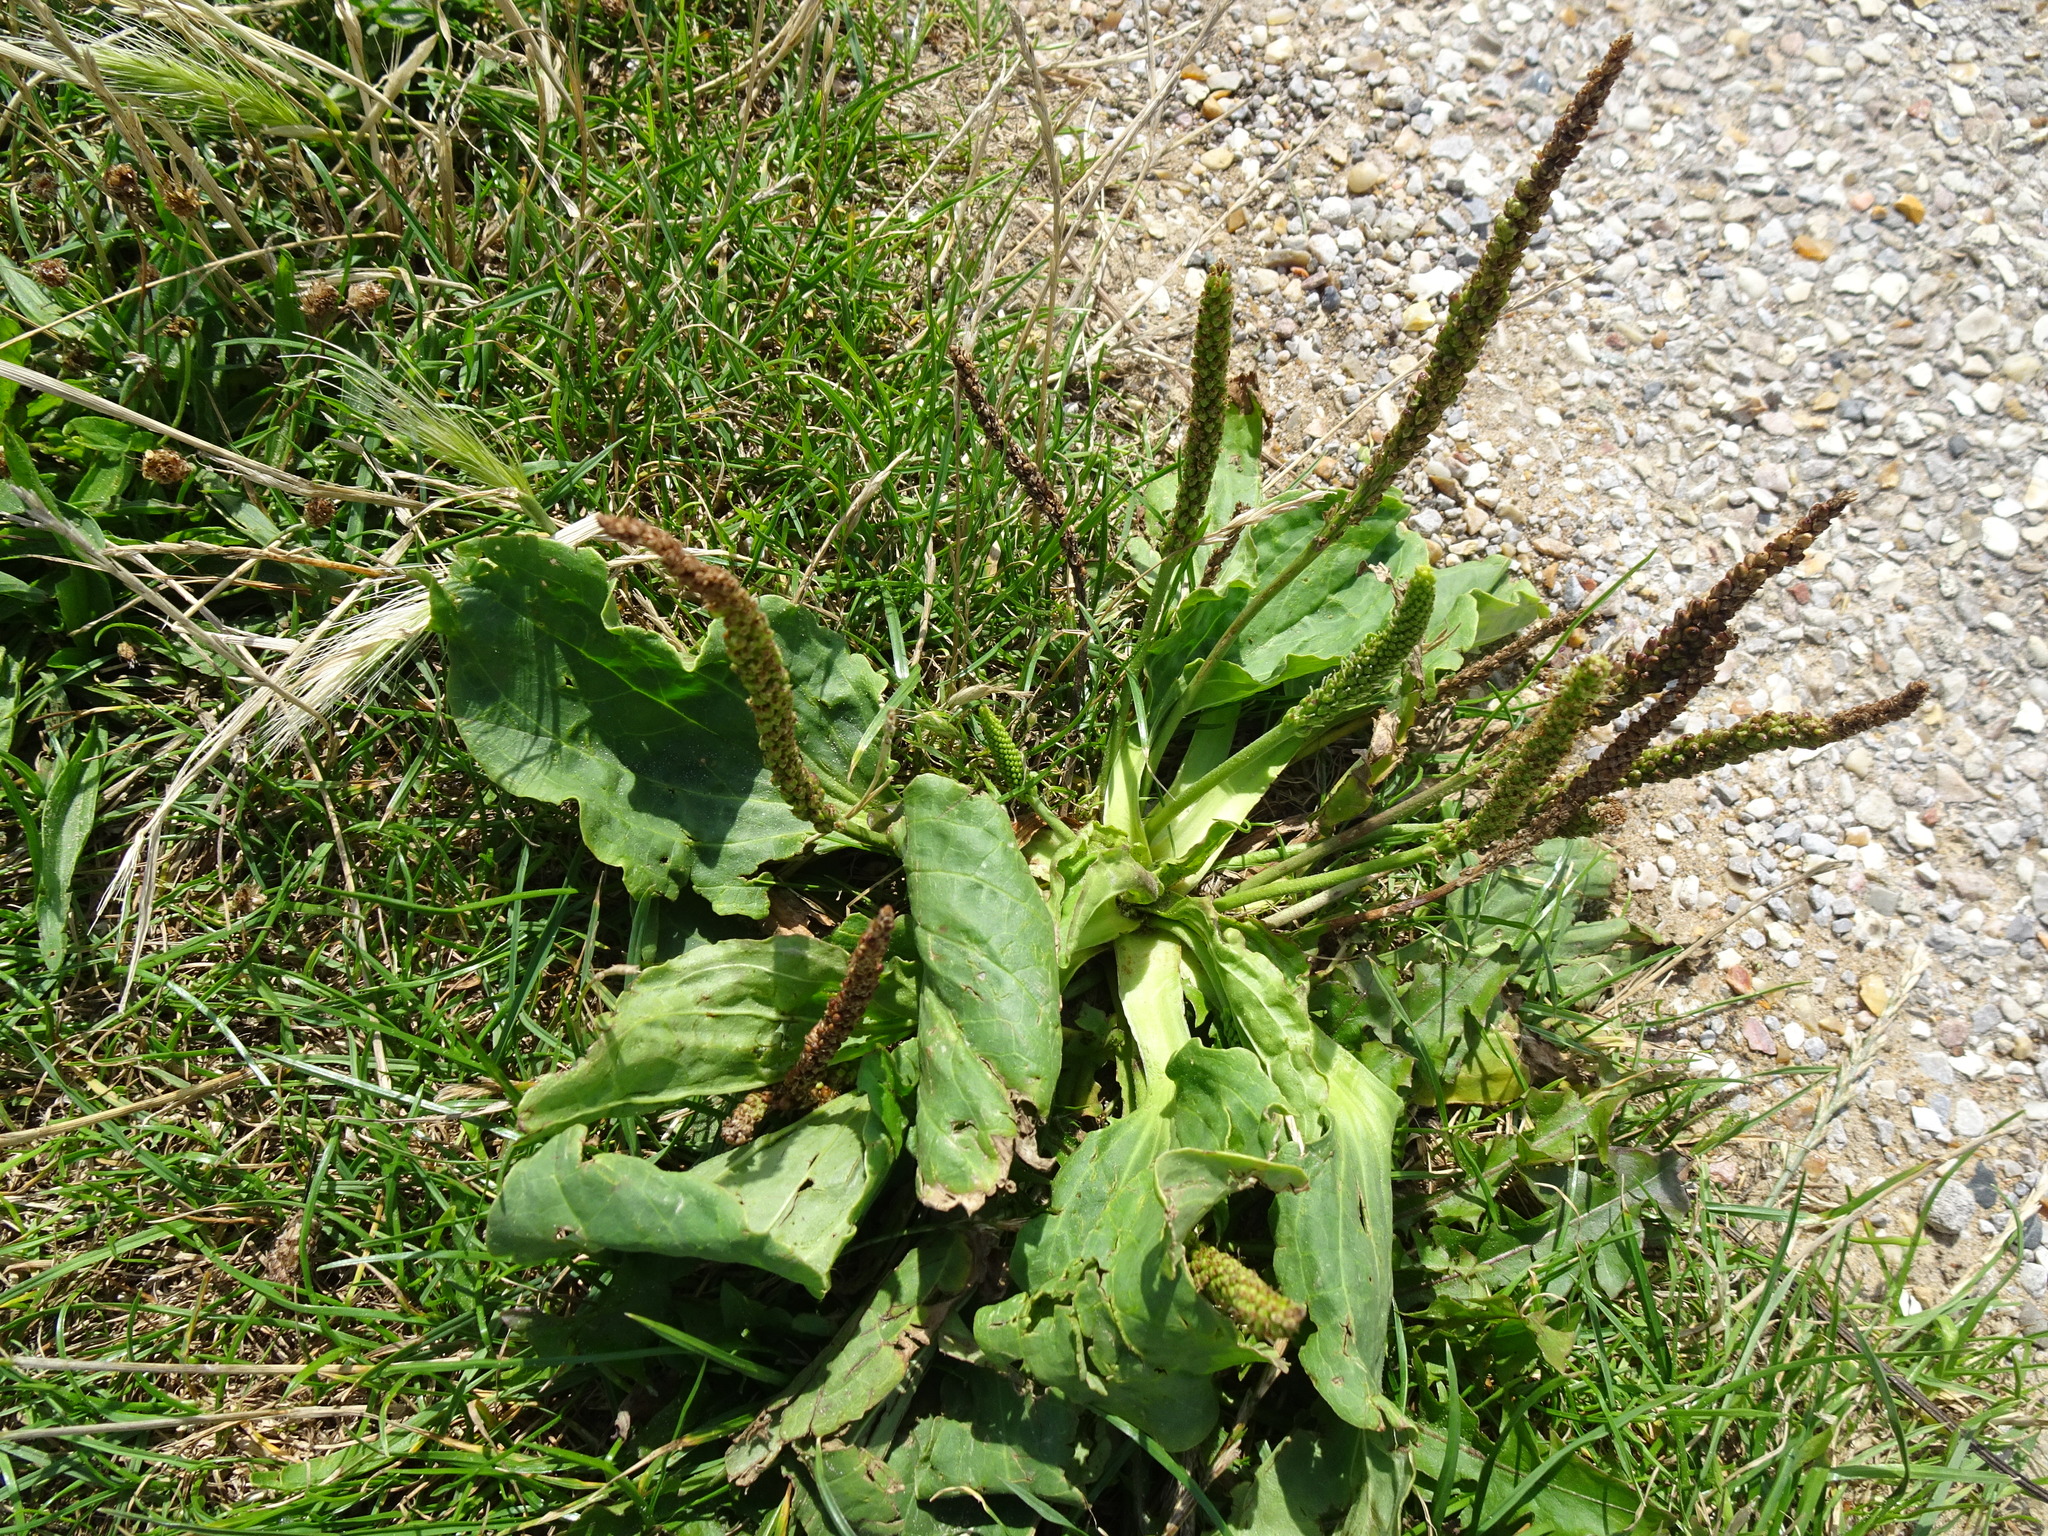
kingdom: Plantae
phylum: Tracheophyta
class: Magnoliopsida
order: Lamiales
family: Plantaginaceae
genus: Plantago
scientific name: Plantago major
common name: Common plantain
